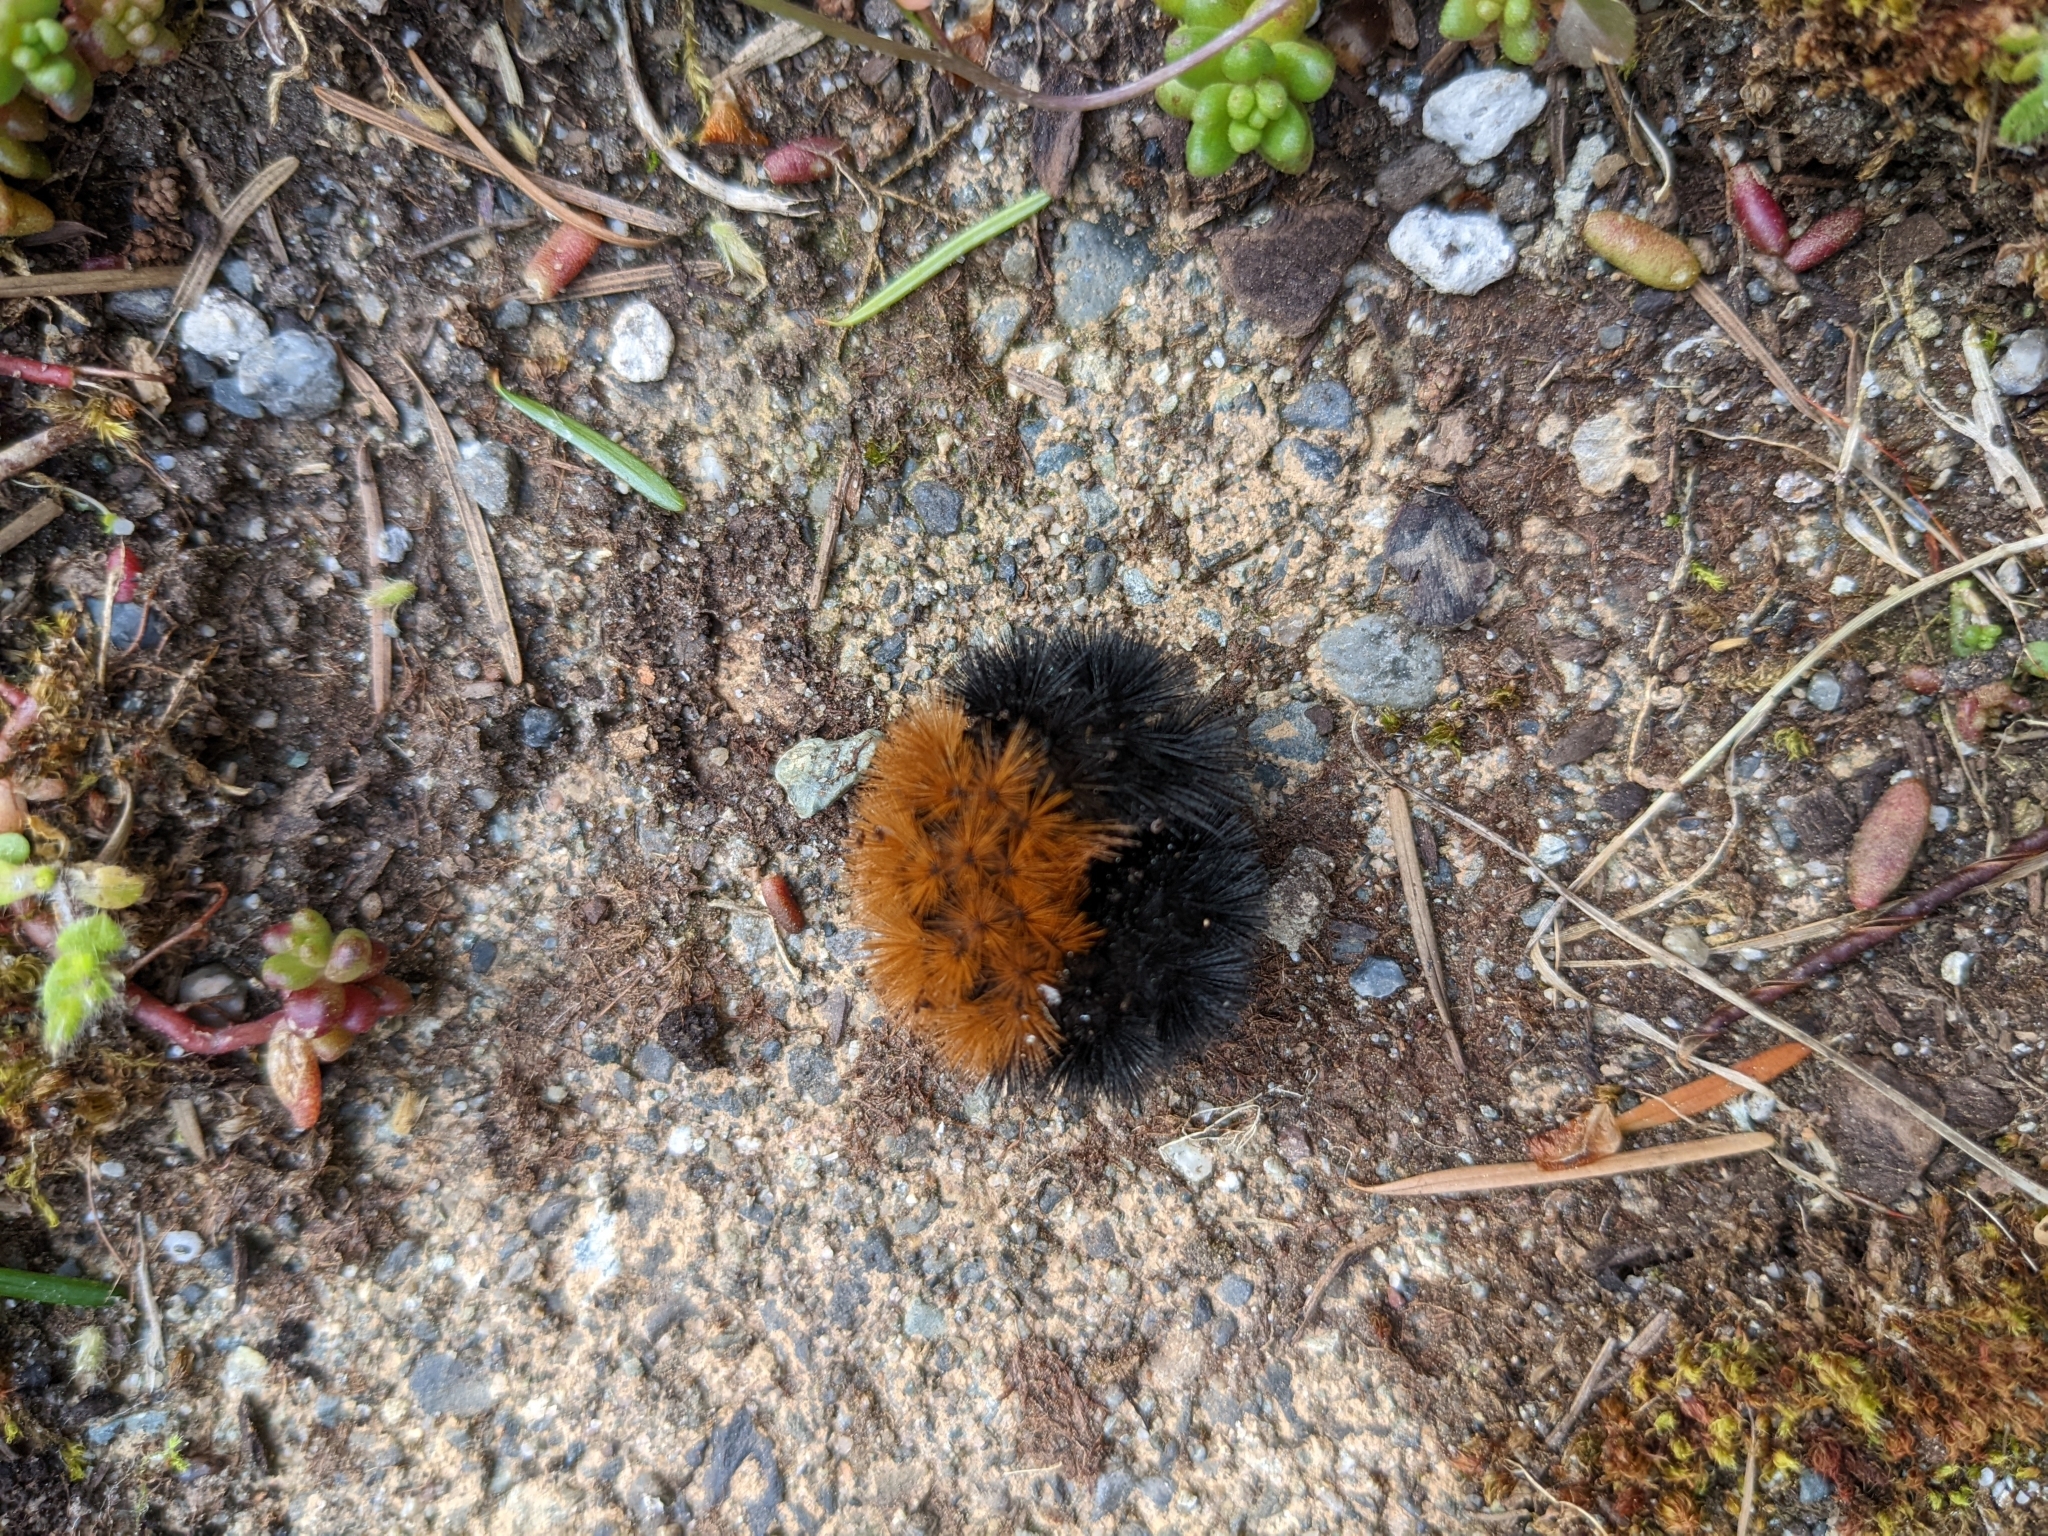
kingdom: Animalia
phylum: Arthropoda
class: Insecta
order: Lepidoptera
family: Erebidae
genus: Pyrrharctia
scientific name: Pyrrharctia isabella
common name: Isabella tiger moth
